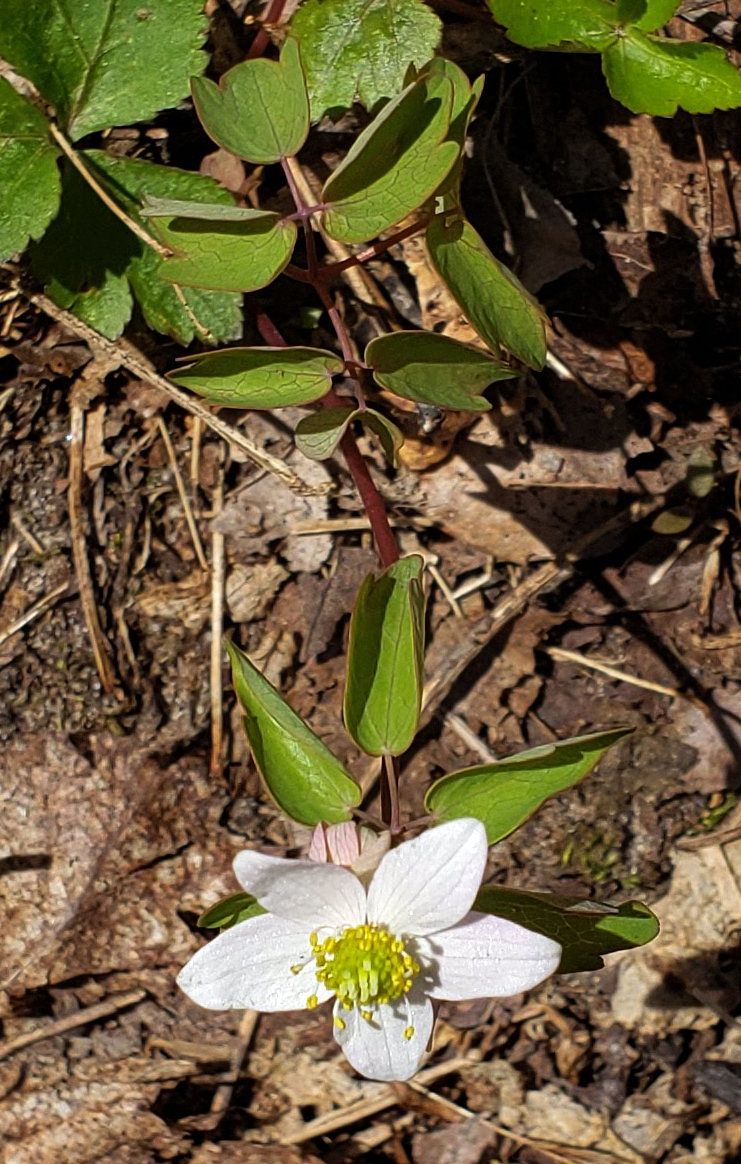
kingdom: Plantae
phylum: Tracheophyta
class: Magnoliopsida
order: Ranunculales
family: Ranunculaceae
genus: Thalictrum
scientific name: Thalictrum thalictroides
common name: Rue-anemone
